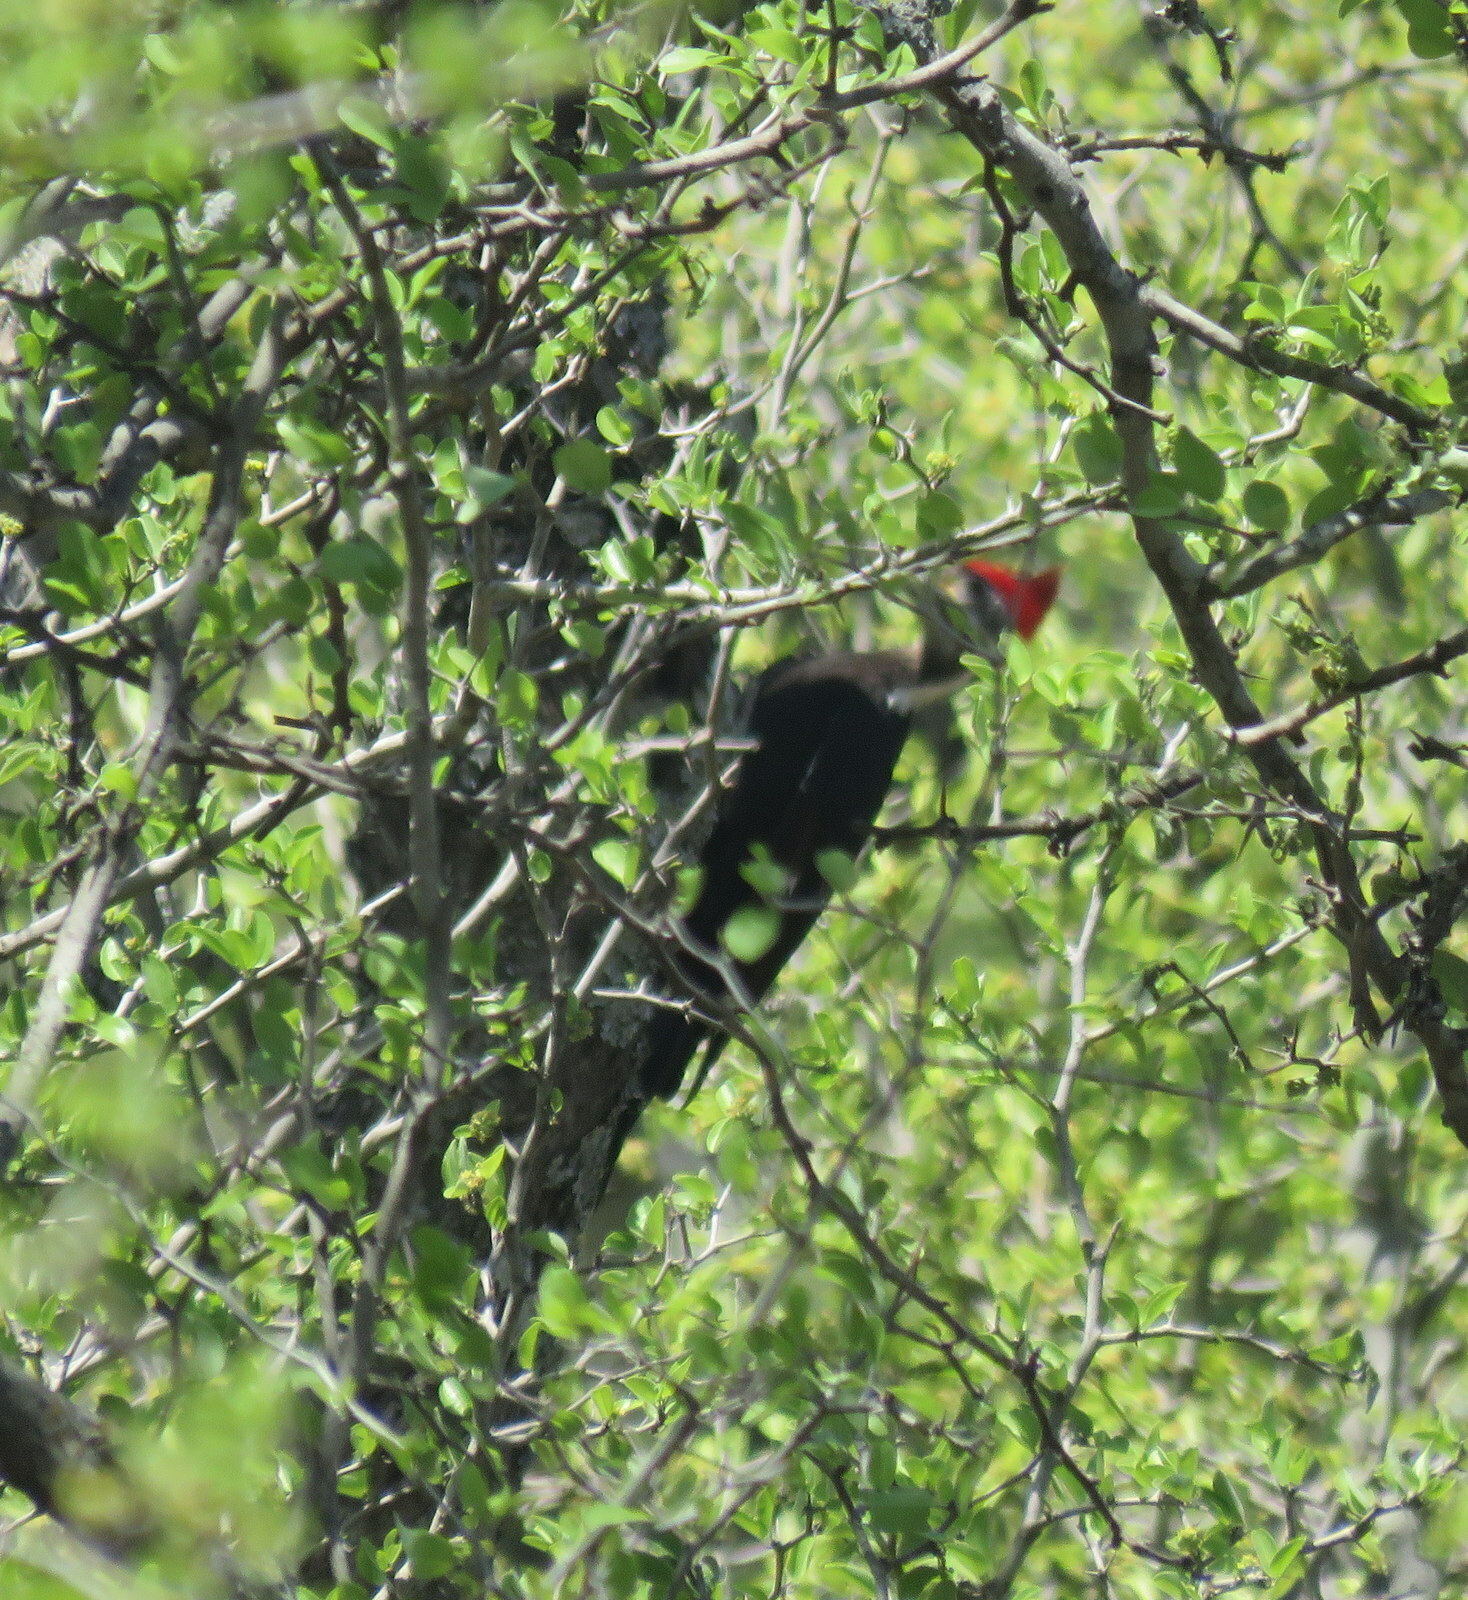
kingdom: Animalia
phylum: Chordata
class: Aves
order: Piciformes
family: Picidae
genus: Dryocopus
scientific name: Dryocopus schulzii
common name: Black-bodied woodpecker
